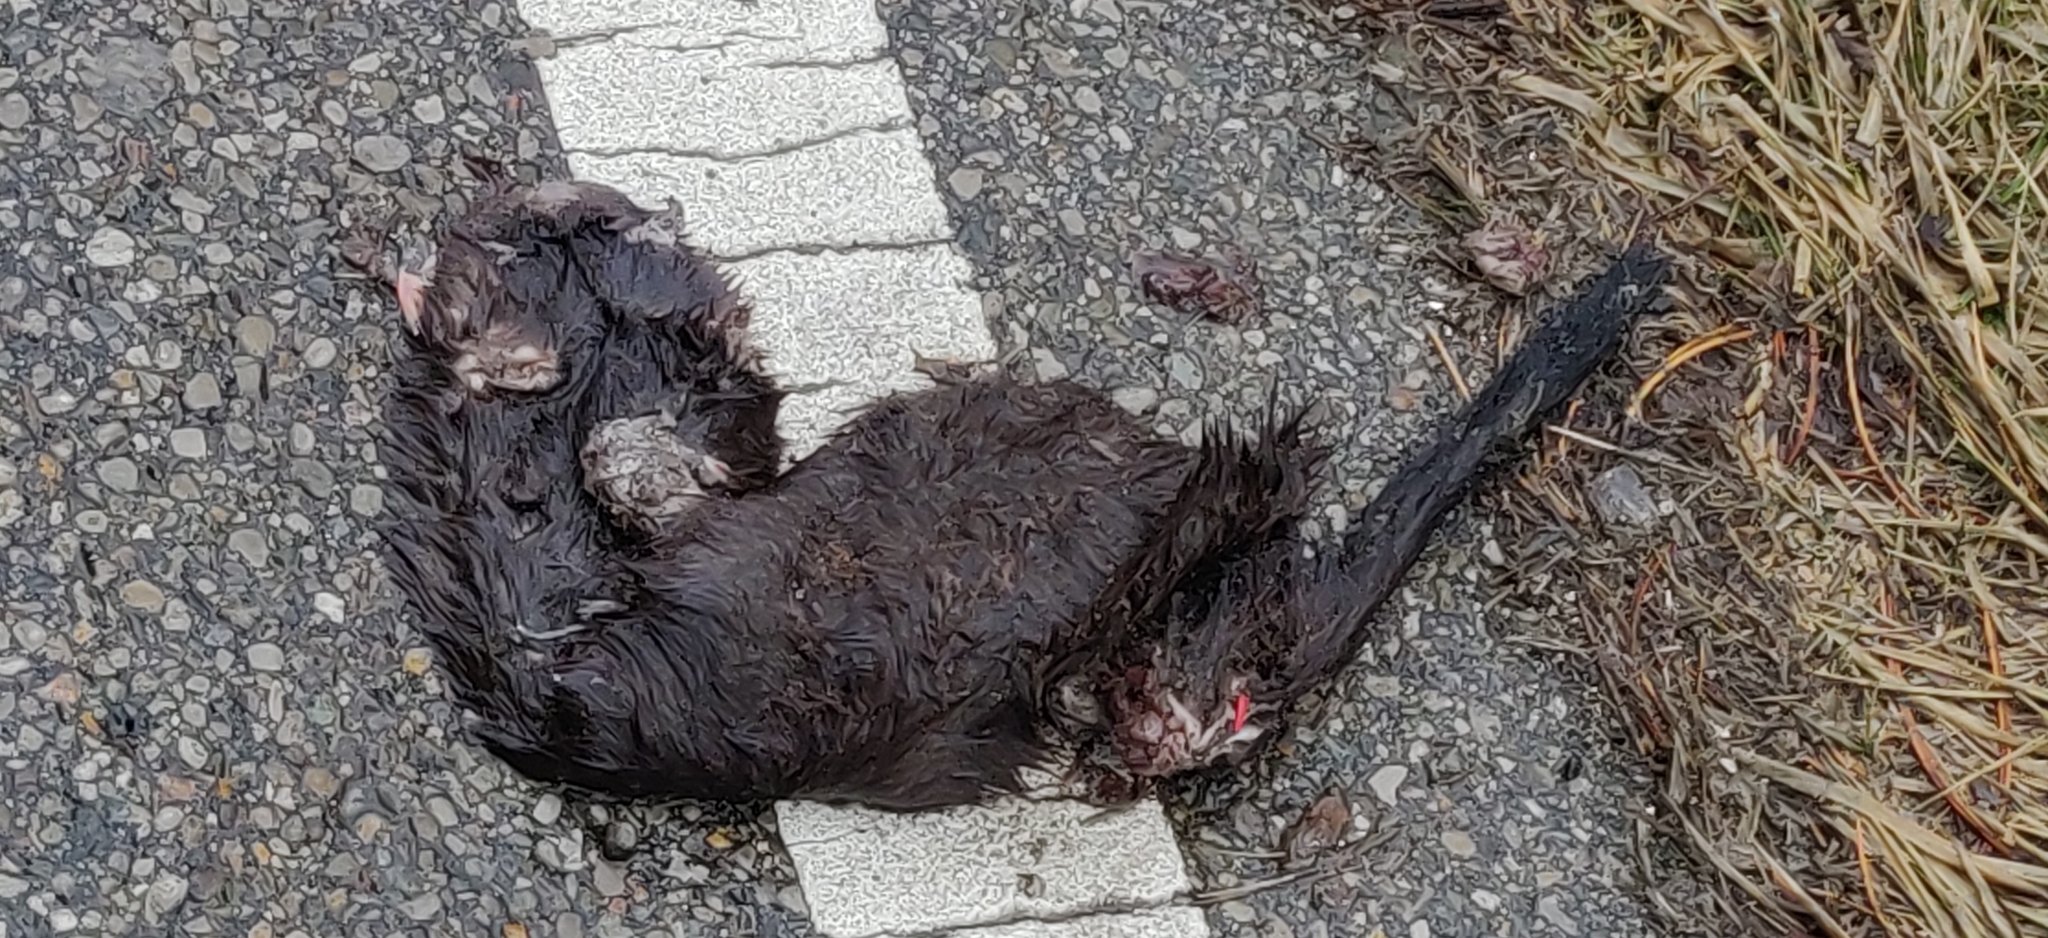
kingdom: Animalia
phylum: Chordata
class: Mammalia
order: Carnivora
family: Mustelidae
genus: Mustela
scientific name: Mustela
